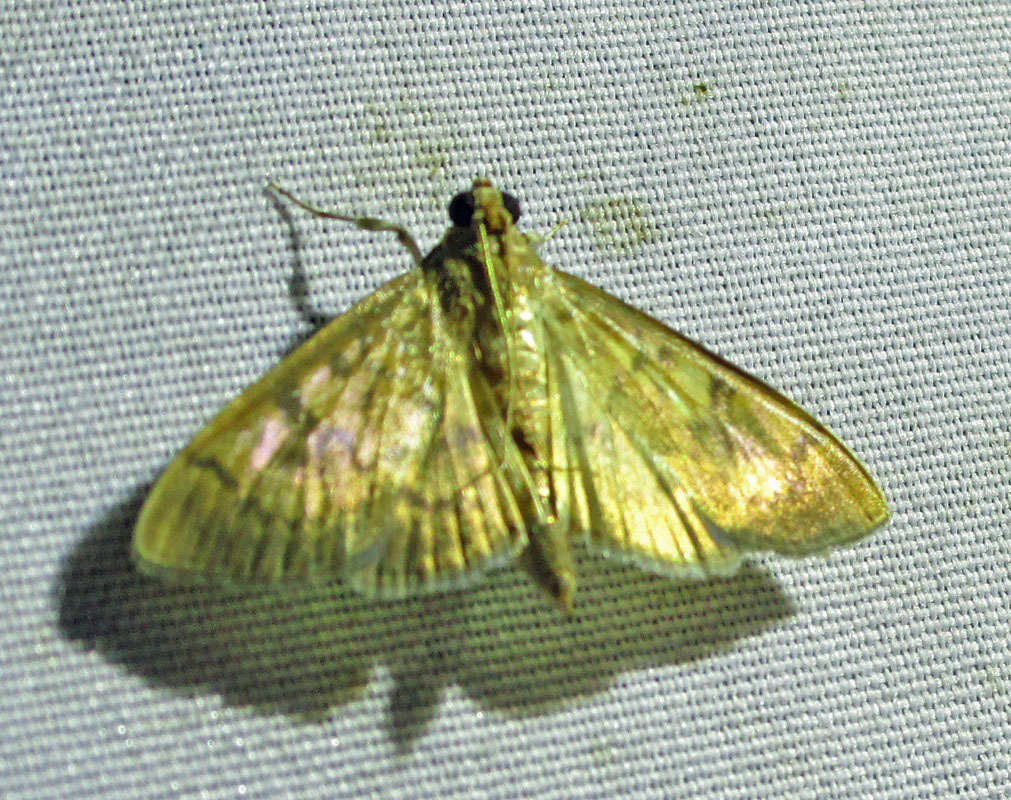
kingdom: Animalia
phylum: Arthropoda
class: Insecta
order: Lepidoptera
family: Crambidae
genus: Syllepte
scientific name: Syllepte obscuralis
